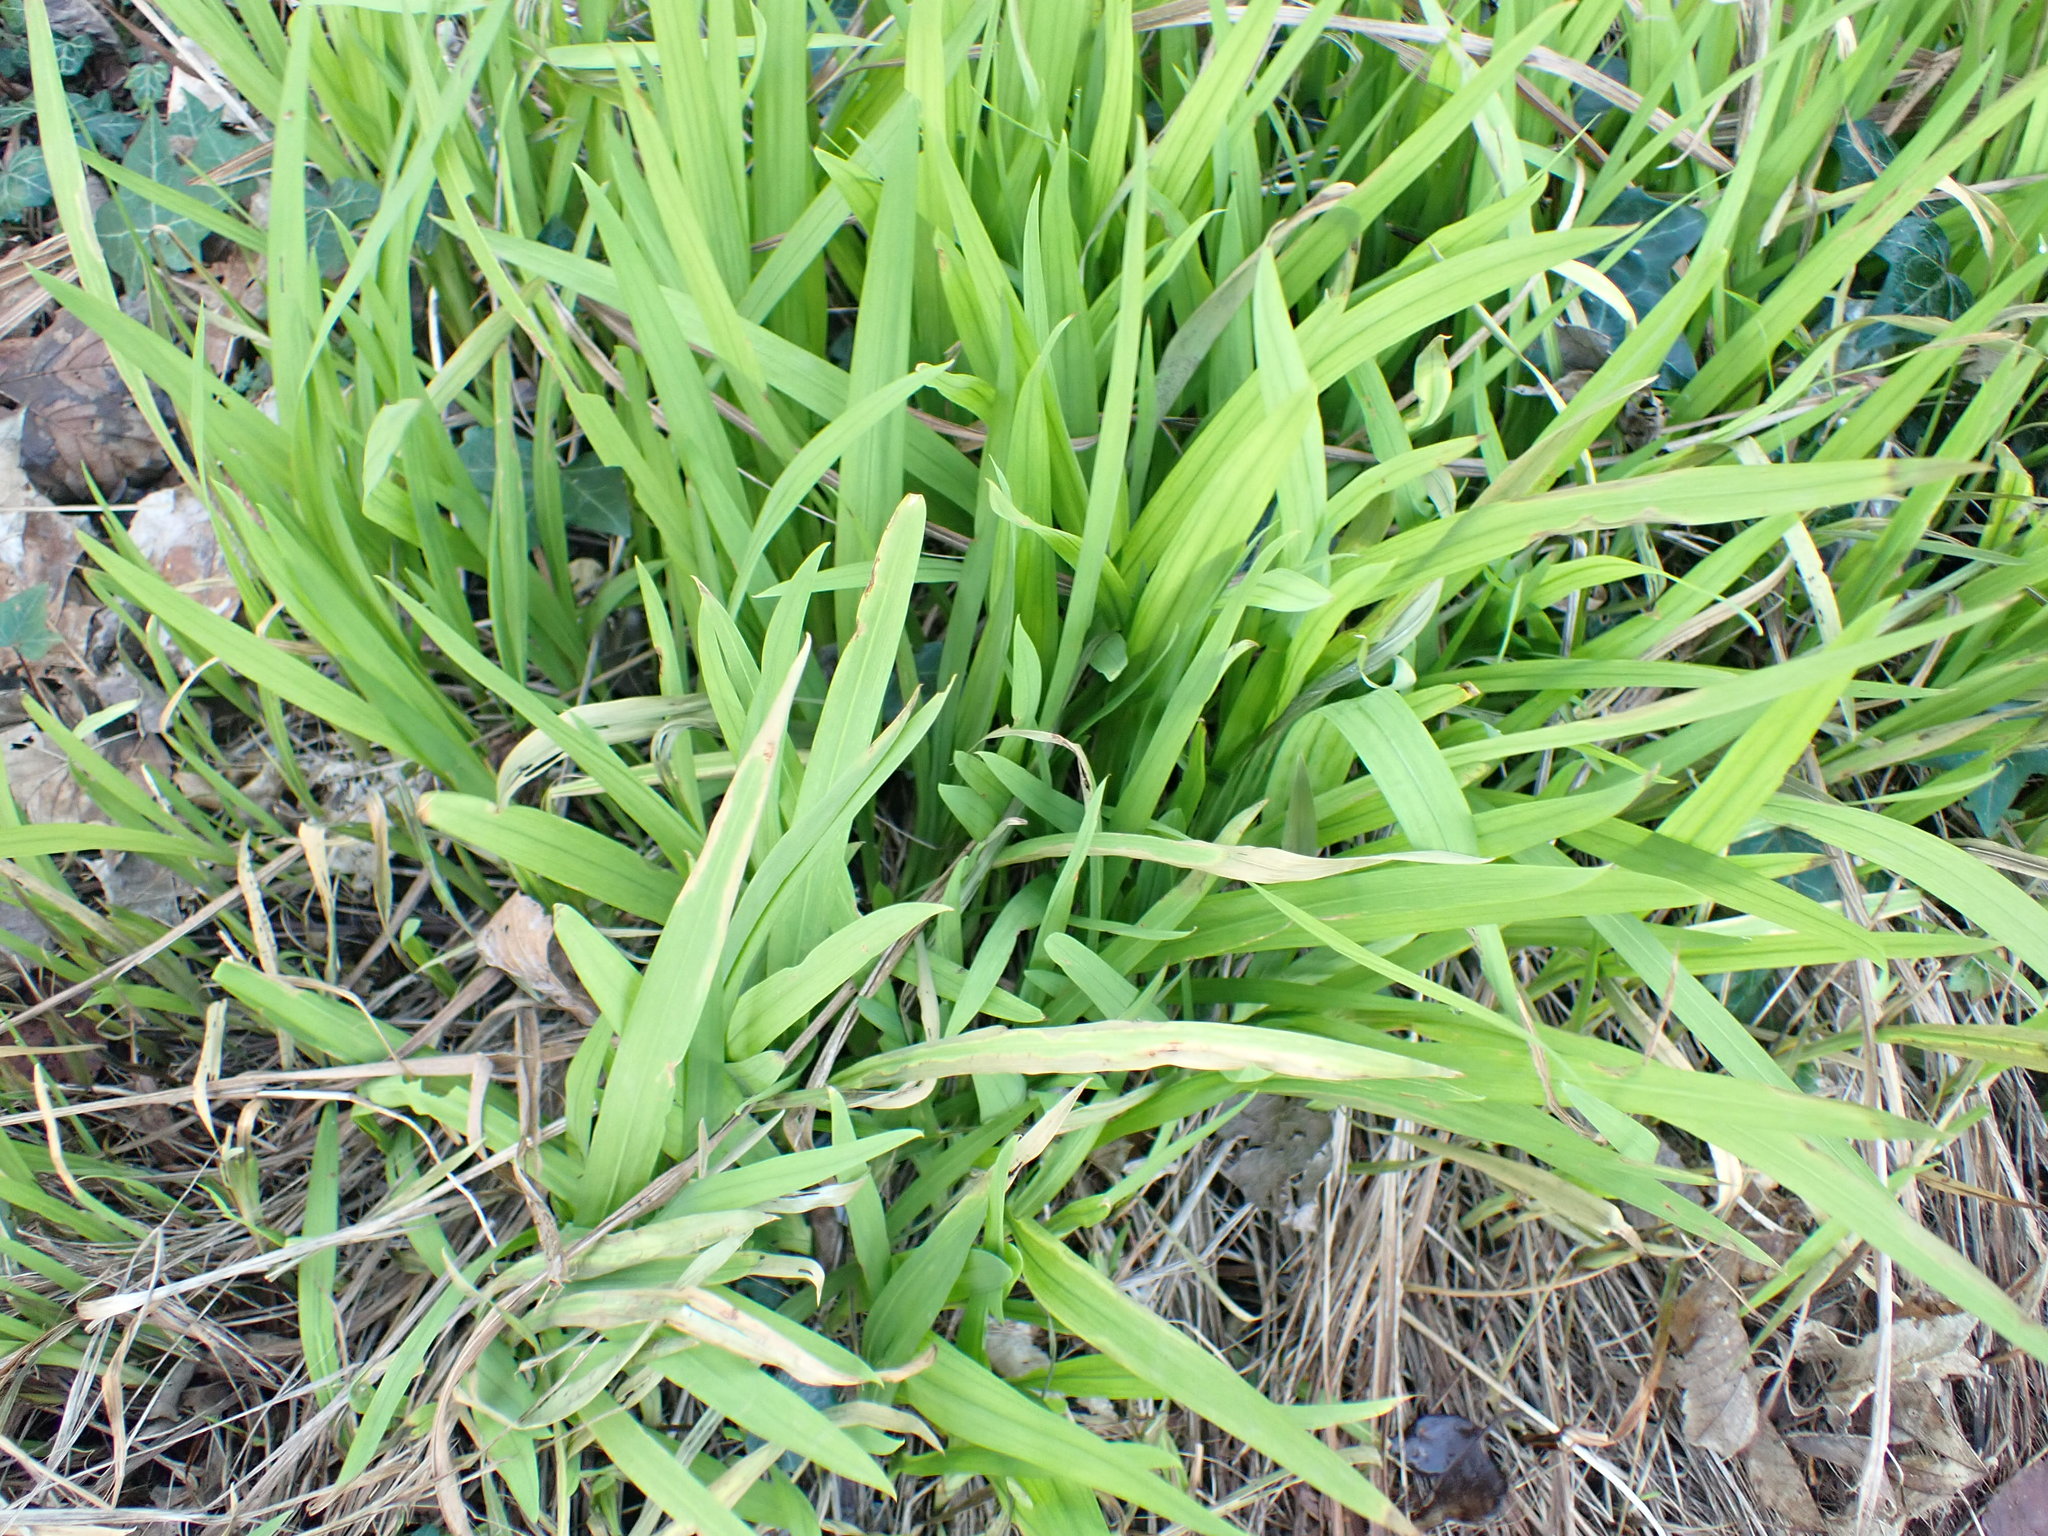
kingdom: Plantae
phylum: Tracheophyta
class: Liliopsida
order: Asparagales
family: Iridaceae
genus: Crocosmia
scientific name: Crocosmia crocosmiiflora
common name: Montbretia
